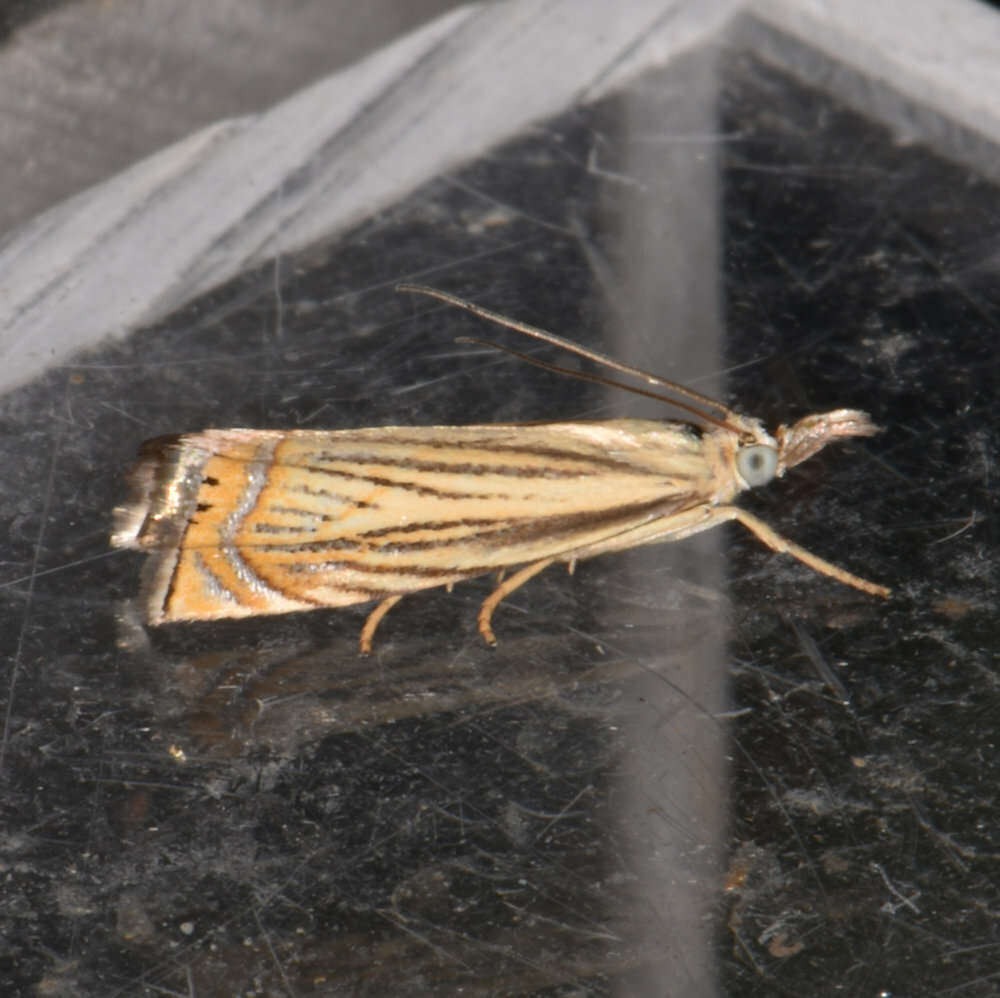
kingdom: Animalia
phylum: Arthropoda
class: Insecta
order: Lepidoptera
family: Crambidae
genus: Chrysoteuchia
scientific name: Chrysoteuchia topiarius
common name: Topiary grass-veneer
